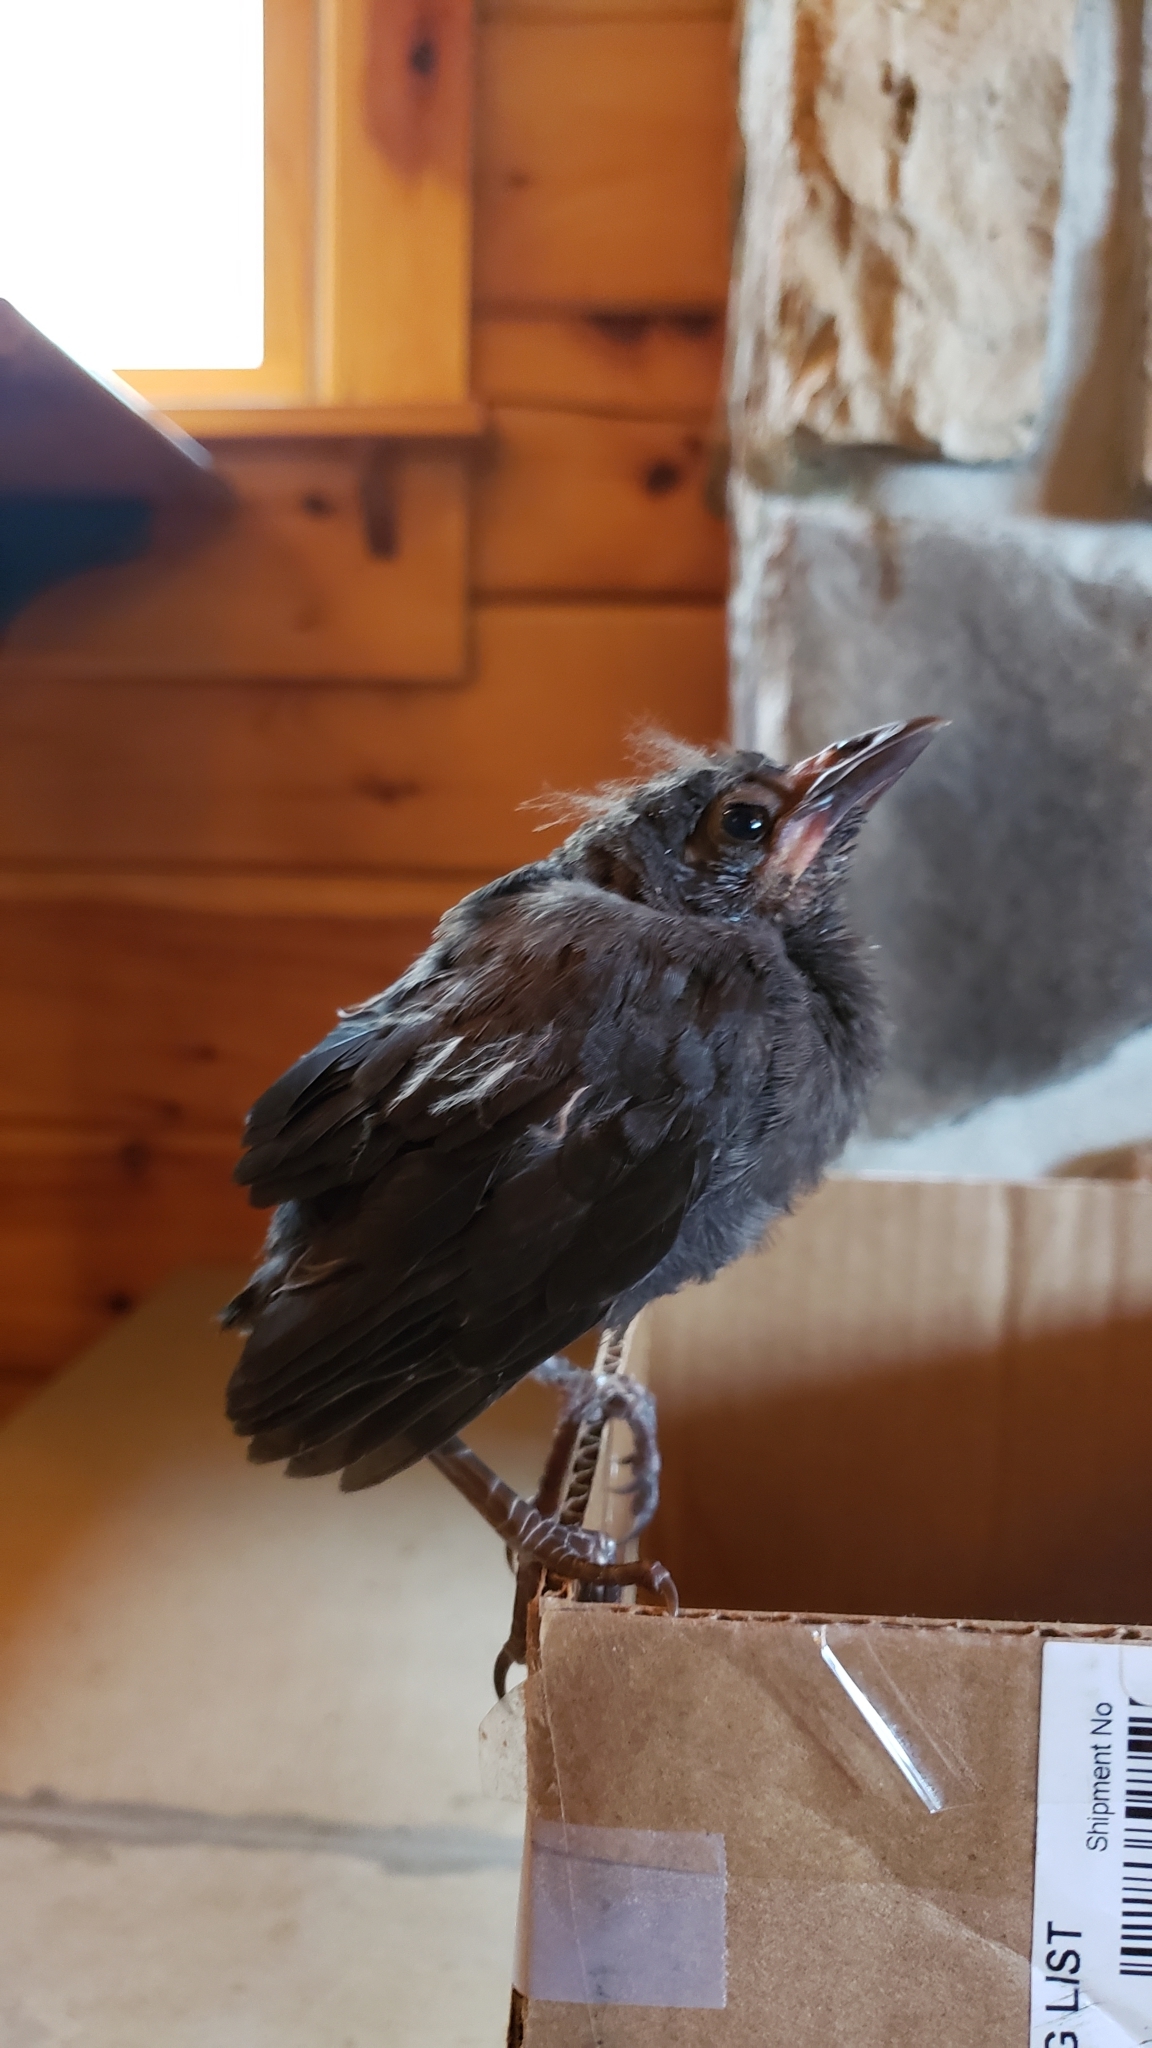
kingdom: Animalia
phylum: Chordata
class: Aves
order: Passeriformes
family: Icteridae
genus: Quiscalus
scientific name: Quiscalus quiscula
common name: Common grackle
